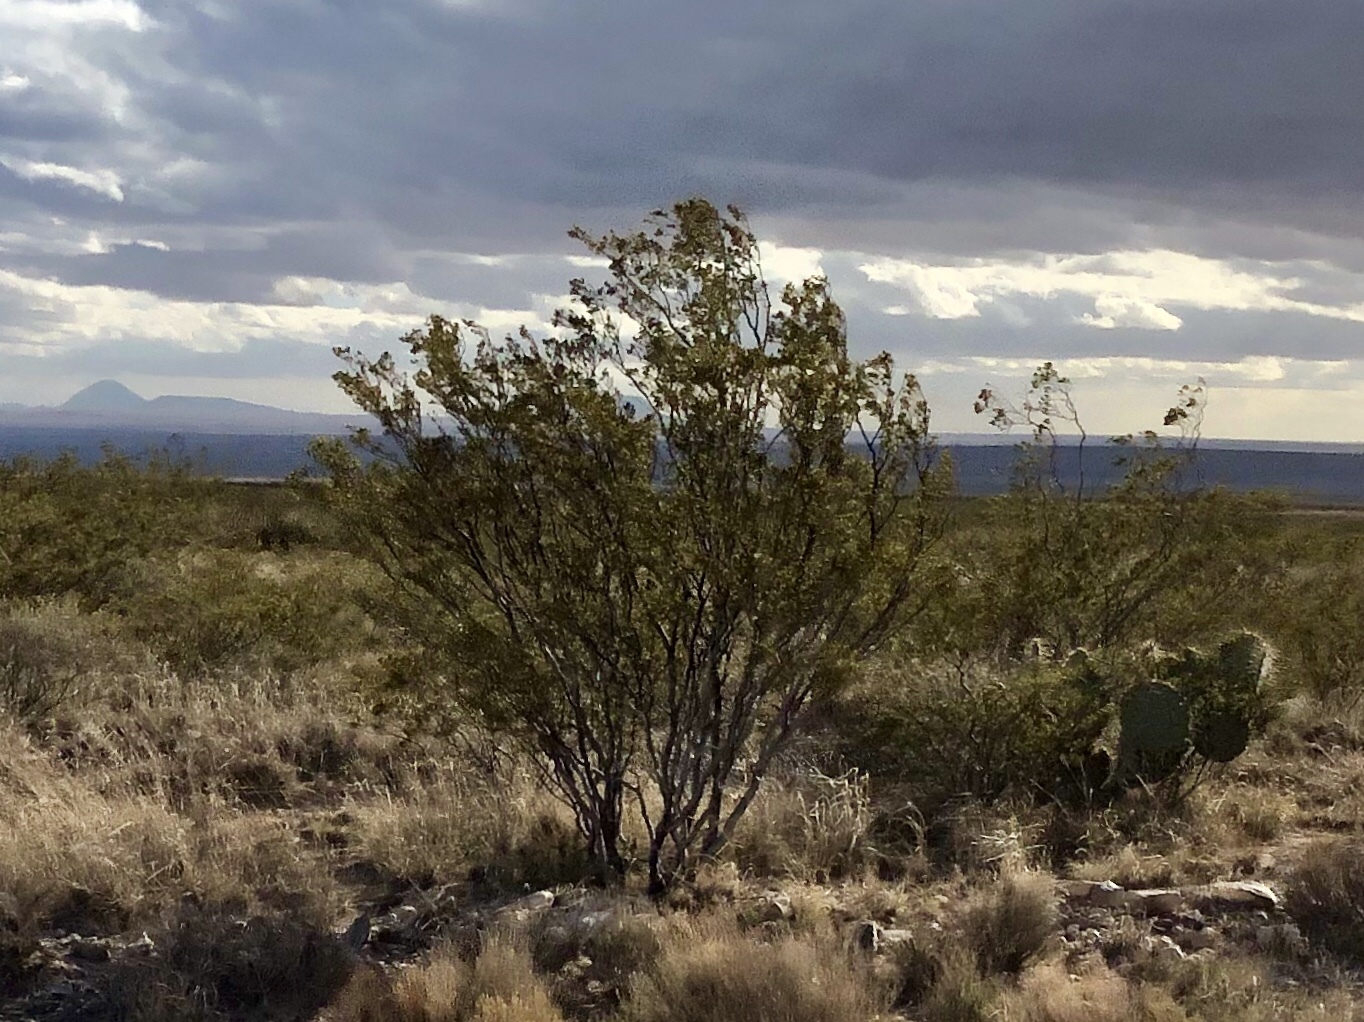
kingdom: Plantae
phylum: Tracheophyta
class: Magnoliopsida
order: Zygophyllales
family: Zygophyllaceae
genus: Larrea
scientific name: Larrea tridentata
